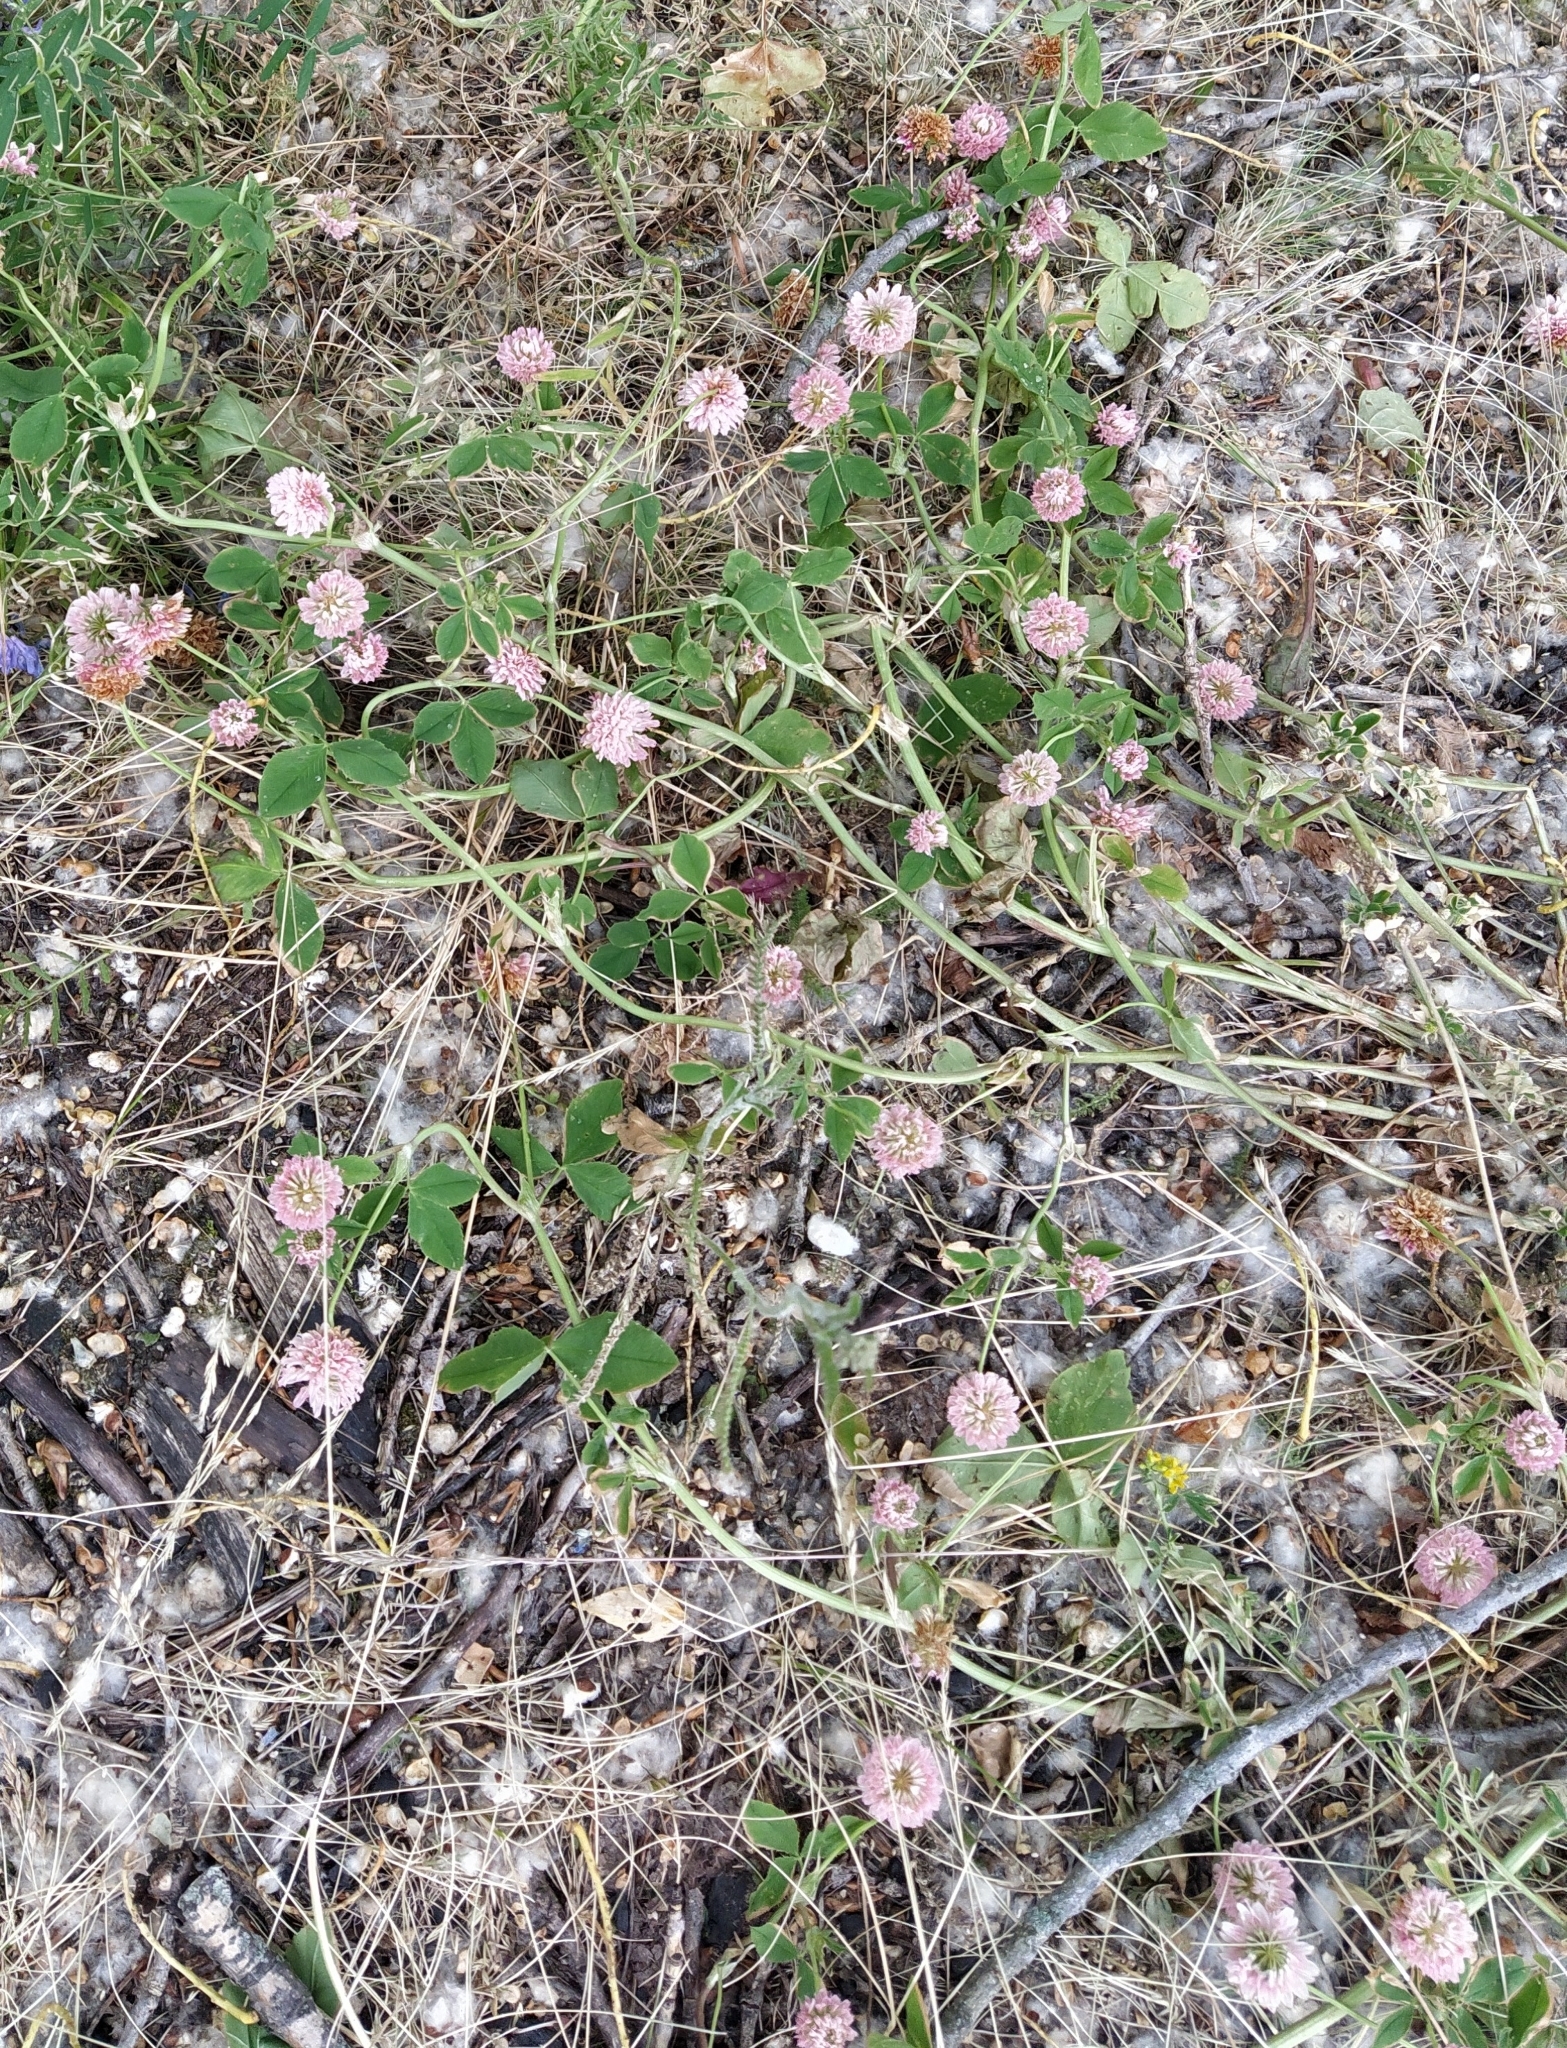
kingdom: Plantae
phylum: Tracheophyta
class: Magnoliopsida
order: Fabales
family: Fabaceae
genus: Trifolium
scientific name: Trifolium hybridum
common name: Alsike clover
